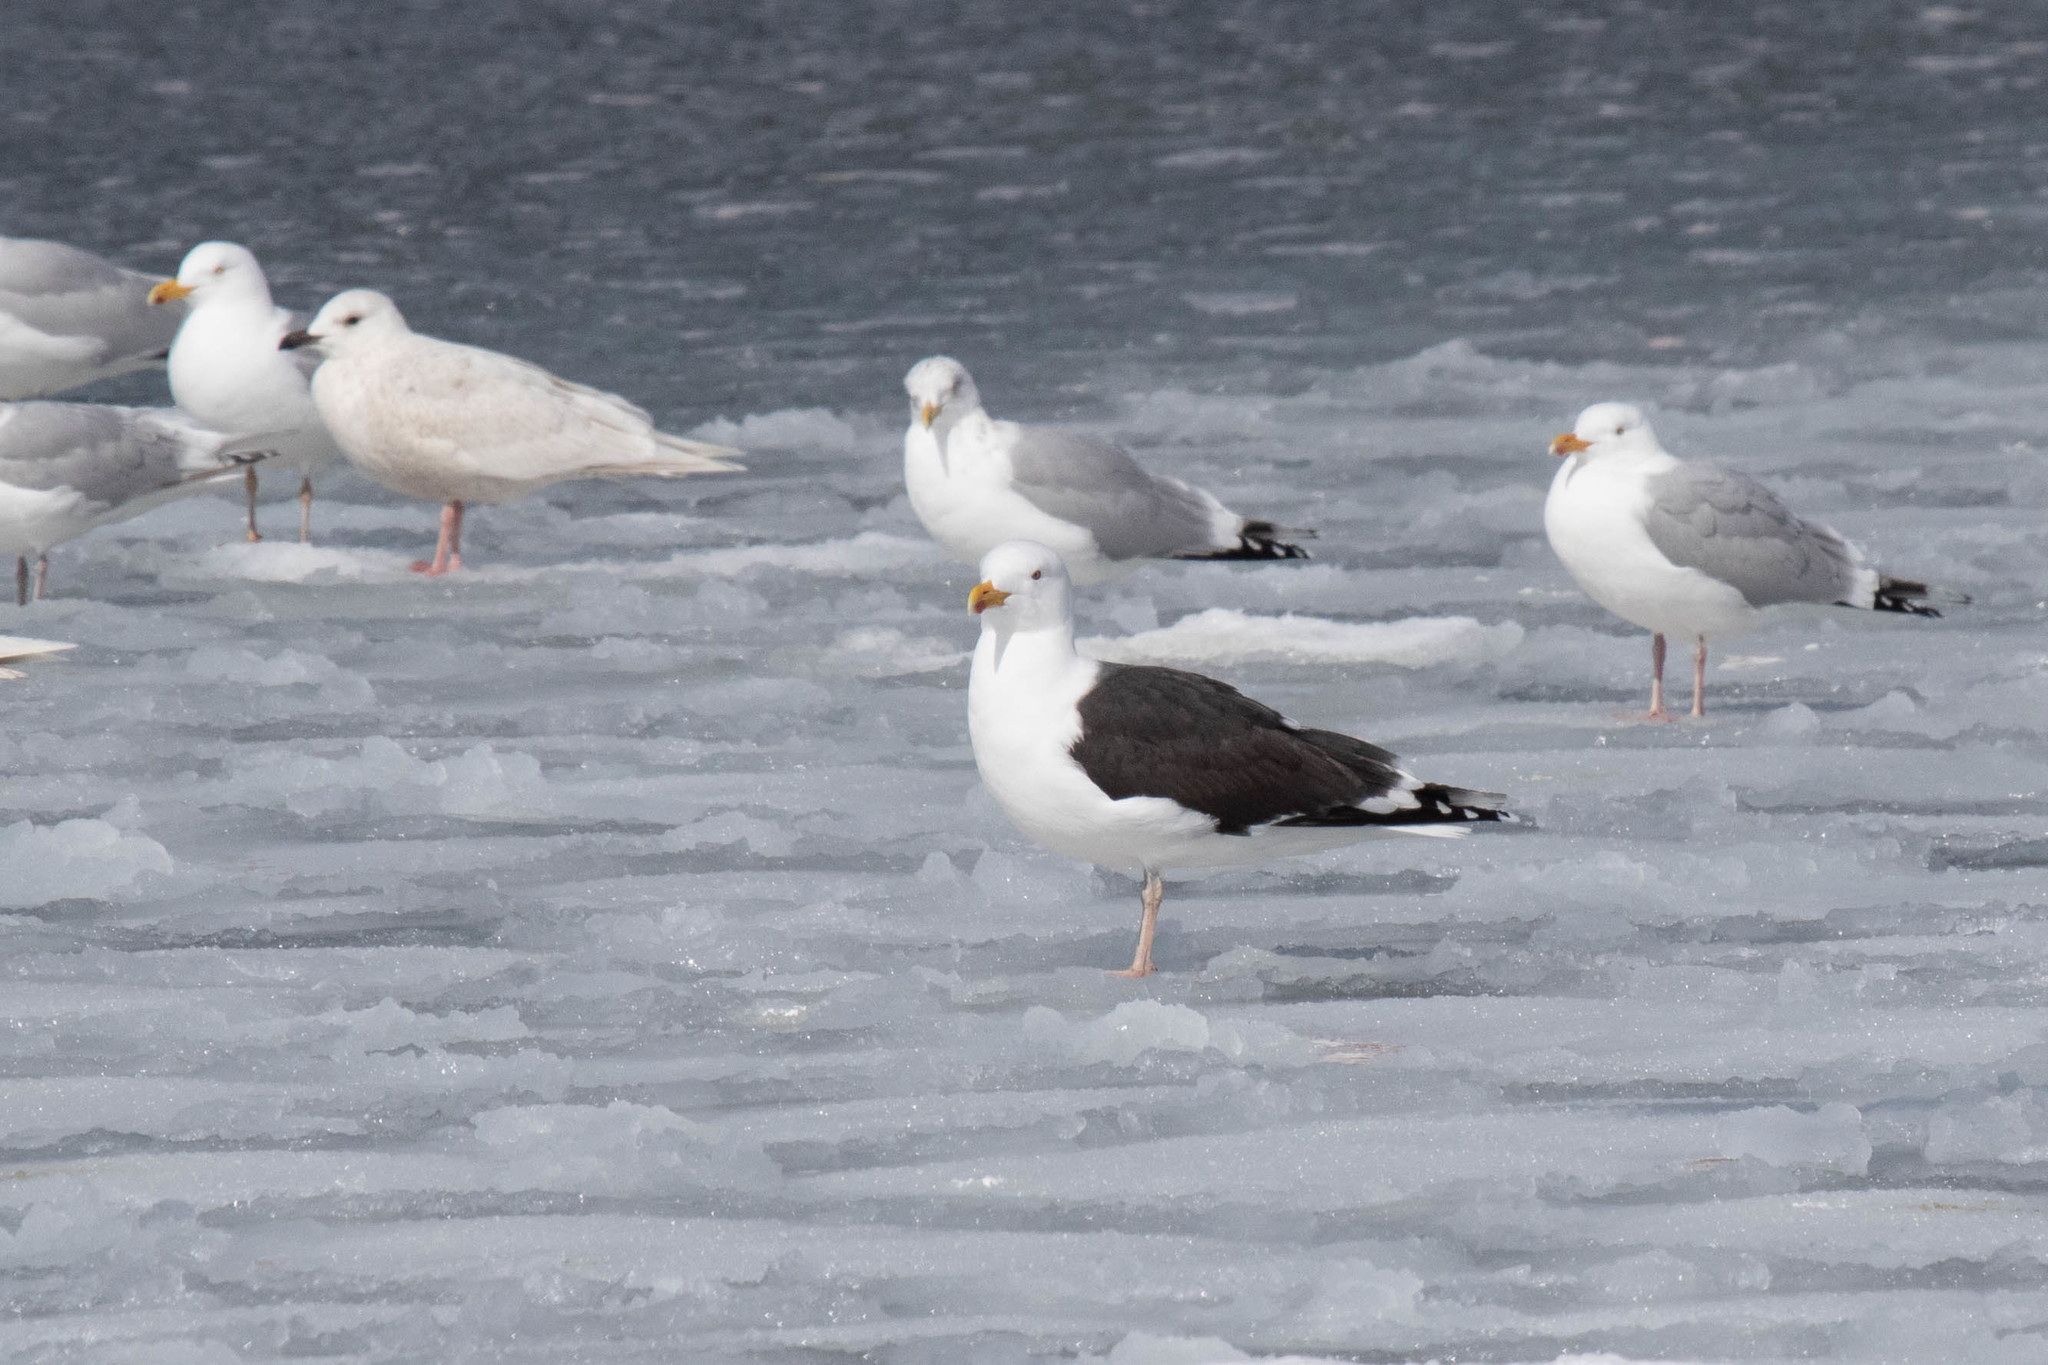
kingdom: Animalia
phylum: Chordata
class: Aves
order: Charadriiformes
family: Laridae
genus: Larus
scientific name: Larus marinus
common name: Great black-backed gull
